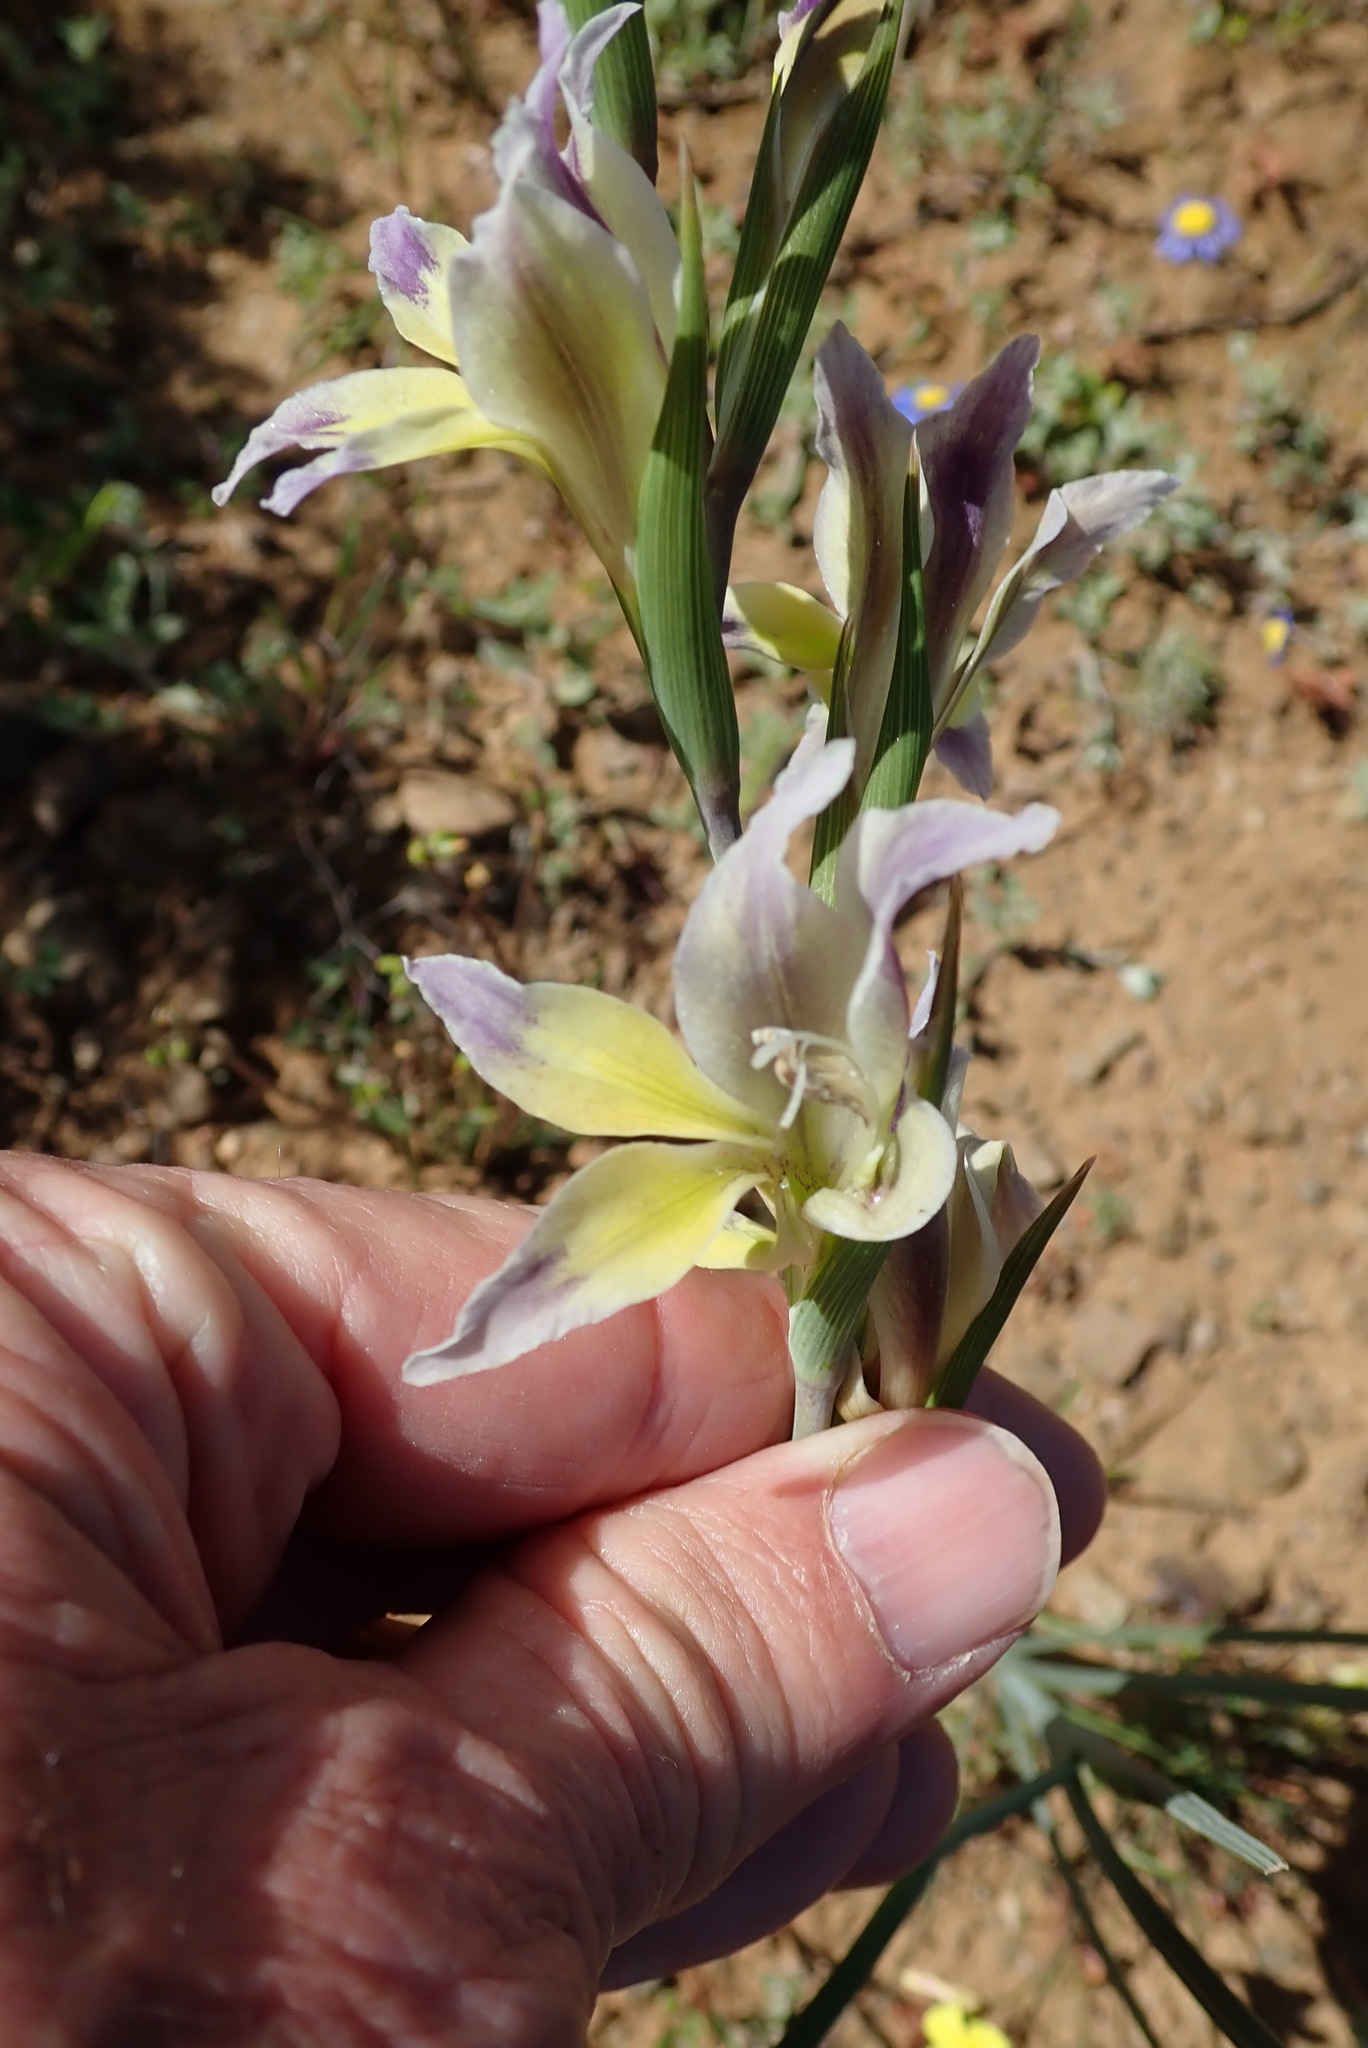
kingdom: Plantae
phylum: Tracheophyta
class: Liliopsida
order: Asparagales
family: Iridaceae
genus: Gladiolus
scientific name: Gladiolus venustus
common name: Purple kalkoentjie
